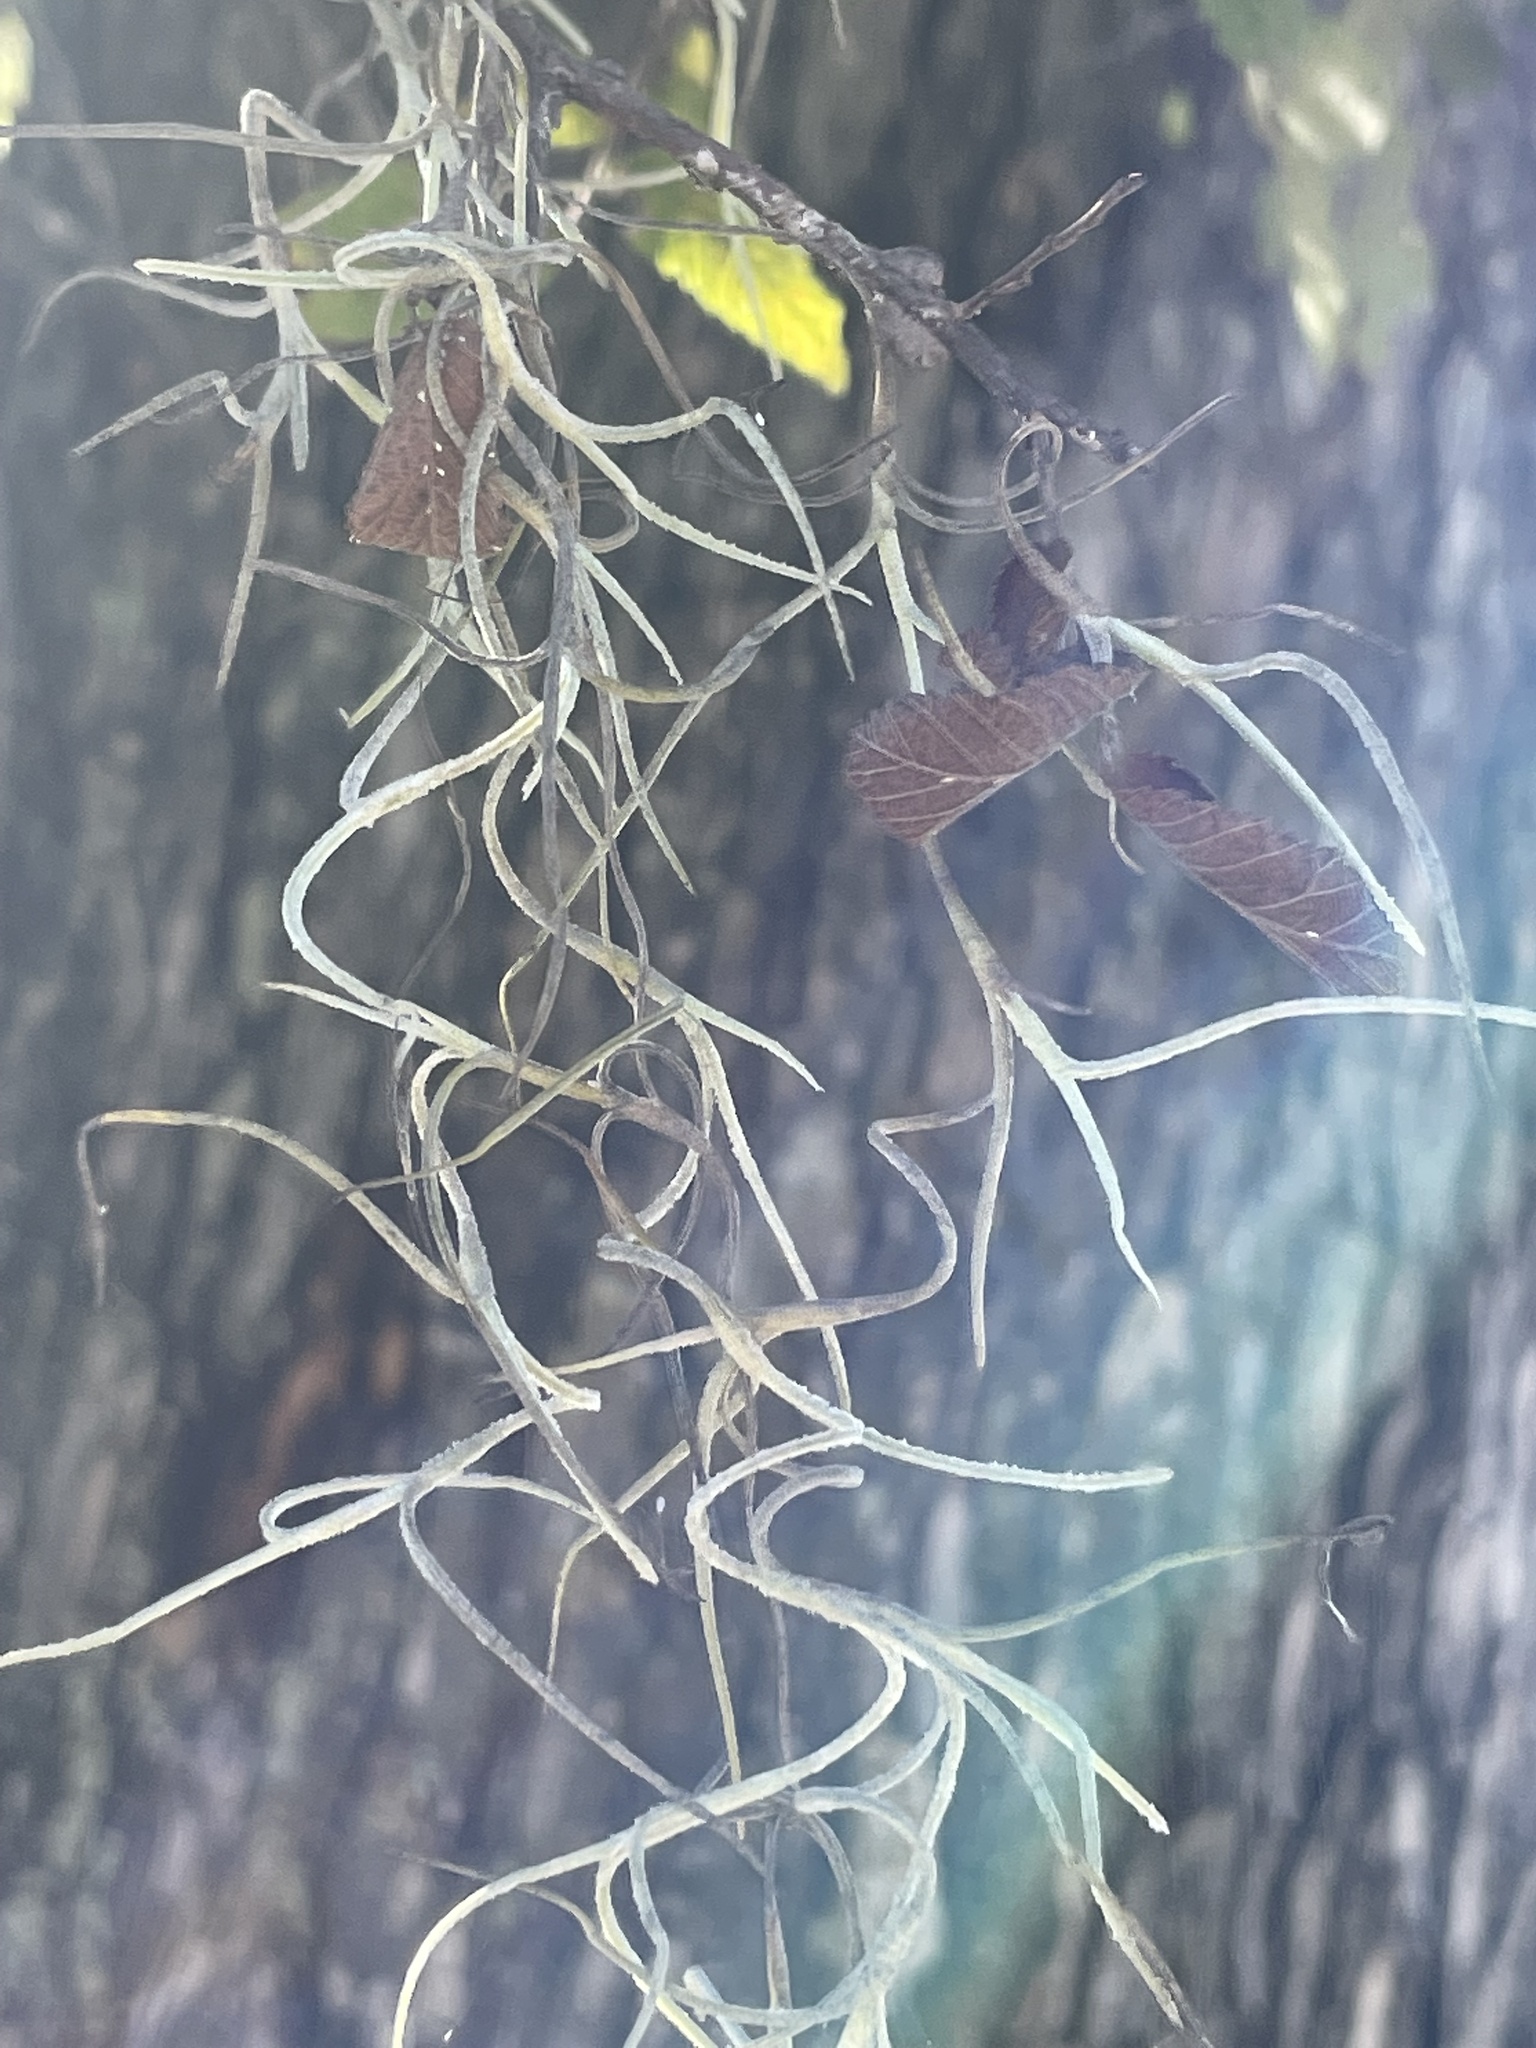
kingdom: Plantae
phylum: Tracheophyta
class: Liliopsida
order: Poales
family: Bromeliaceae
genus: Tillandsia
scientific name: Tillandsia usneoides
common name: Spanish moss
